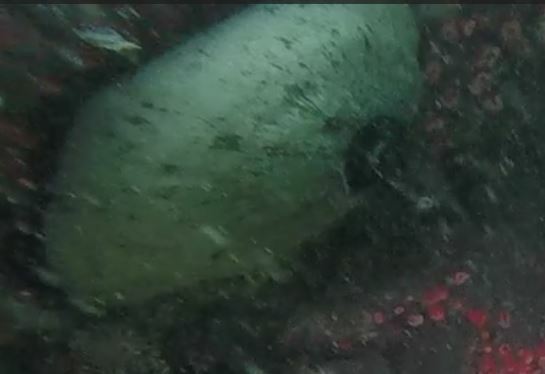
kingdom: Animalia
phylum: Mollusca
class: Gastropoda
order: Lepetellida
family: Fissurellidae
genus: Megathura
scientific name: Megathura crenulata
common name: Giant keyhole limpet
